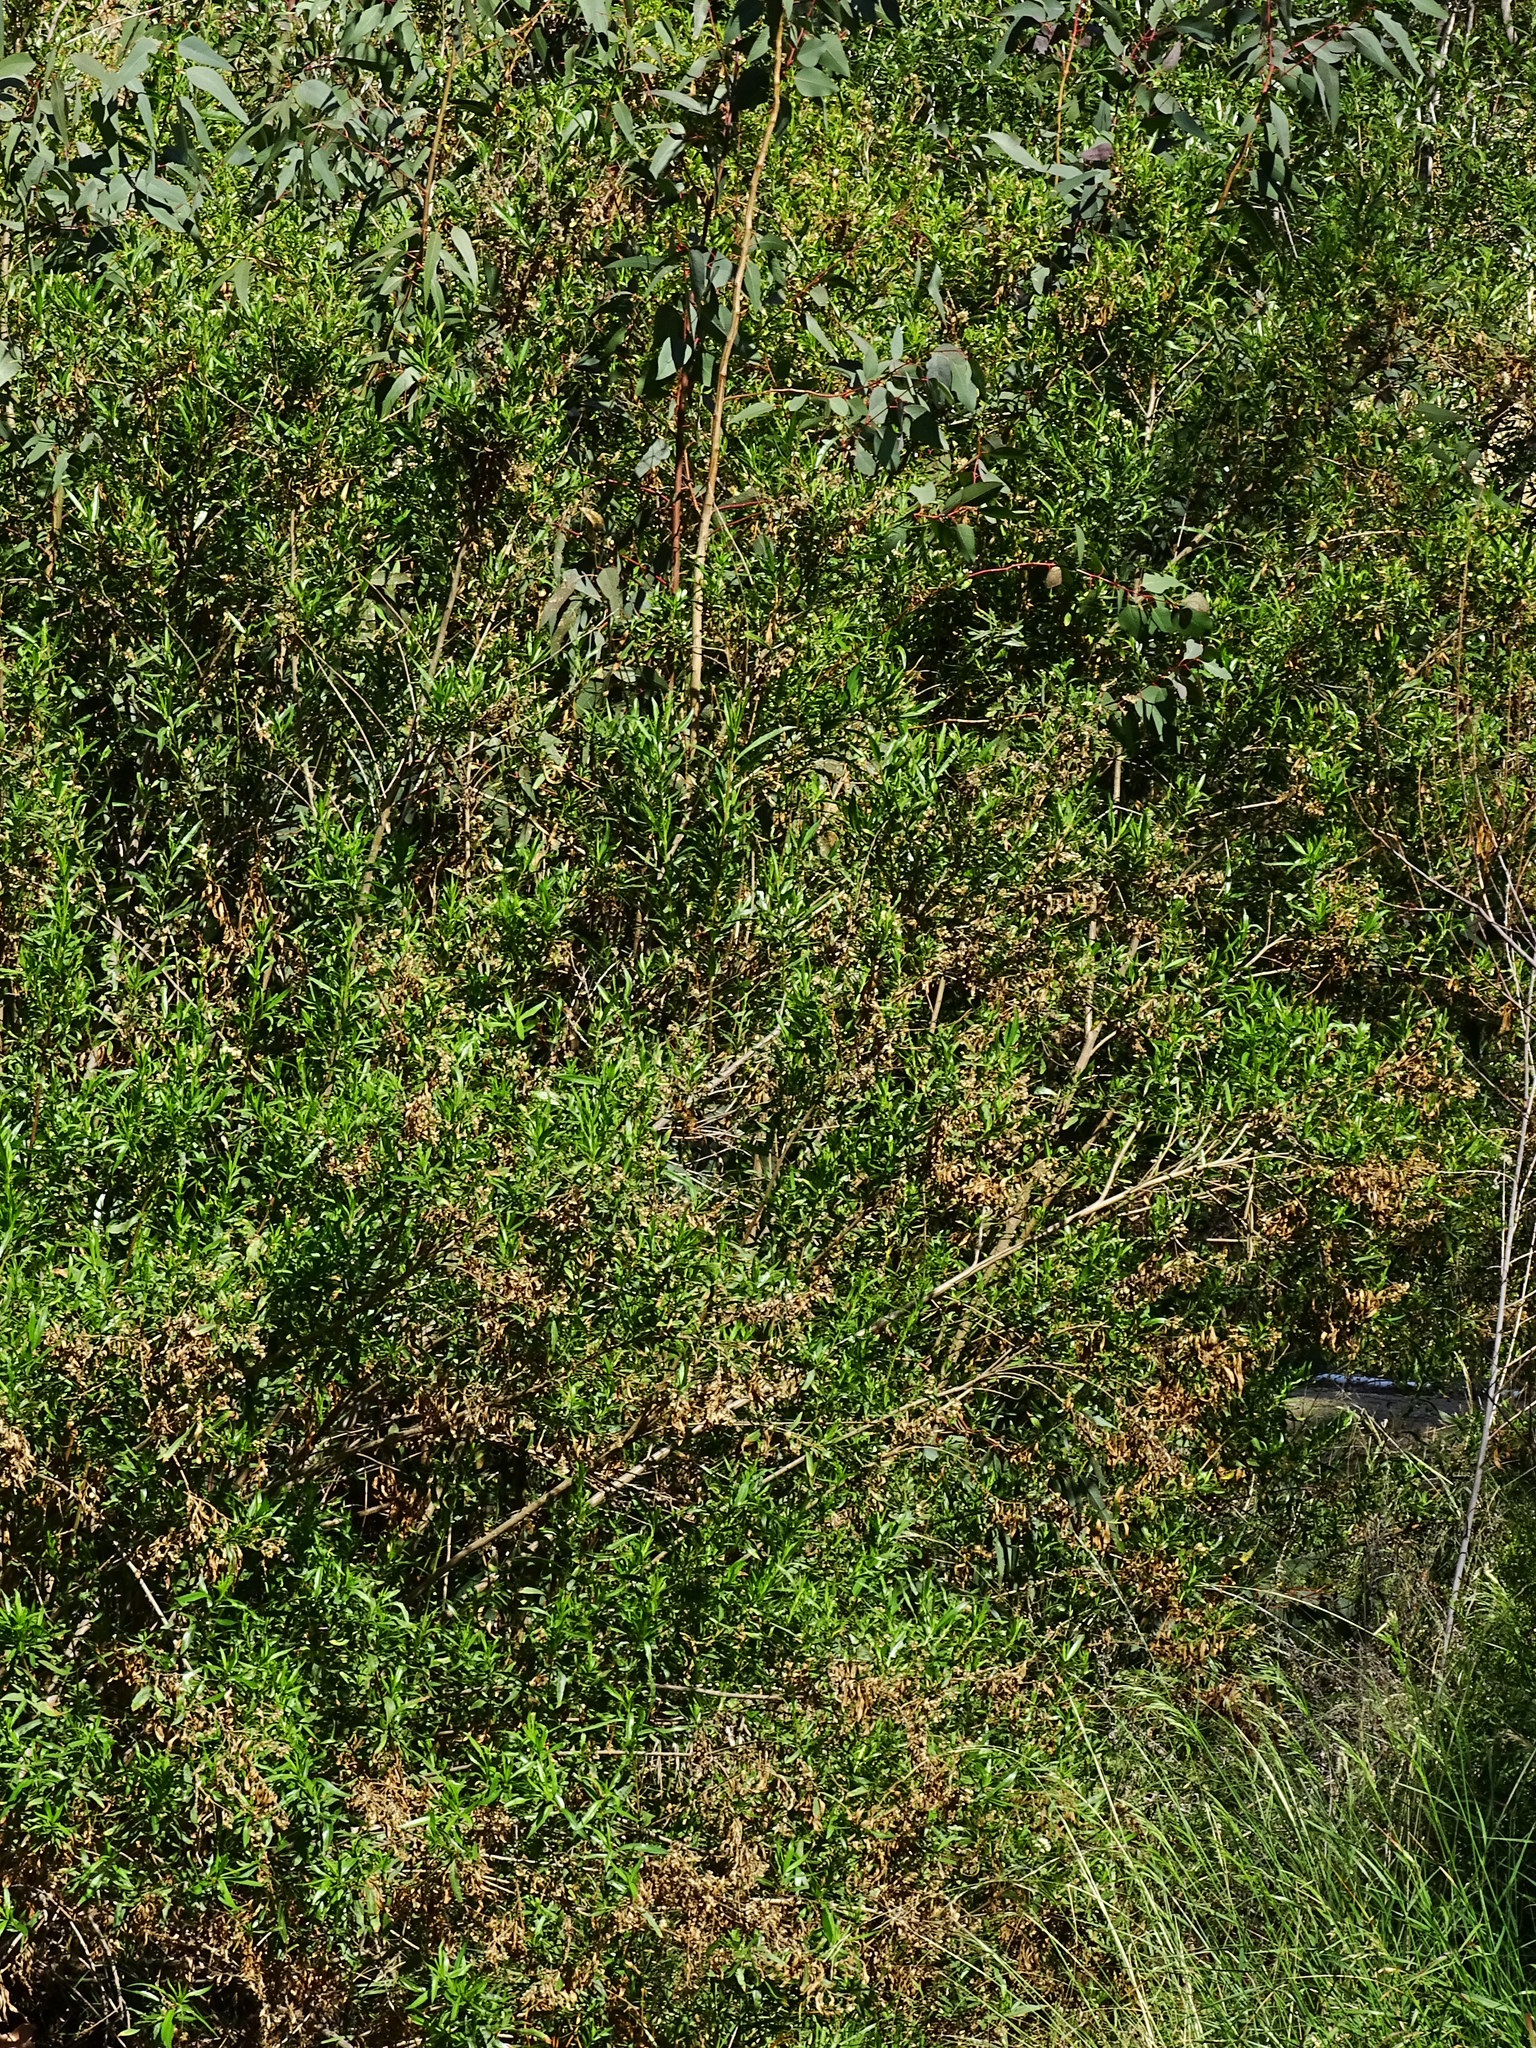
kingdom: Plantae
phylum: Tracheophyta
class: Magnoliopsida
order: Asterales
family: Asteraceae
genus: Baccharis
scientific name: Baccharis salicifolia
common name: Sticky baccharis
